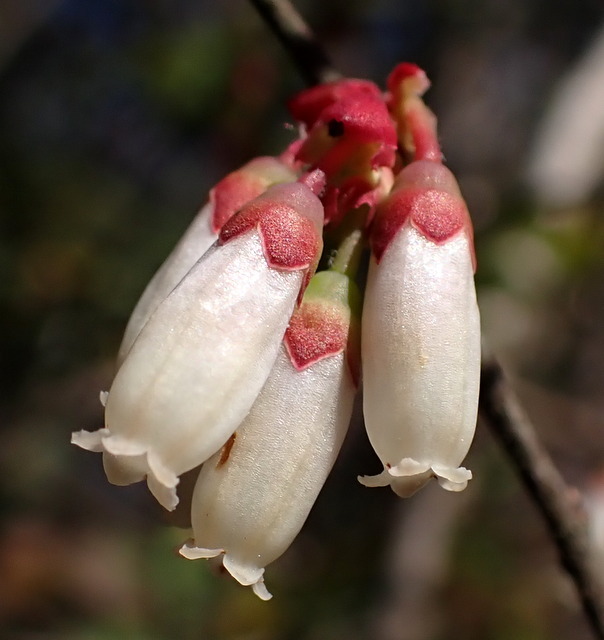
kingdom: Plantae
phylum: Tracheophyta
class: Magnoliopsida
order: Ericales
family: Ericaceae
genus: Vaccinium
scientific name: Vaccinium corymbosum
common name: Blueberry
